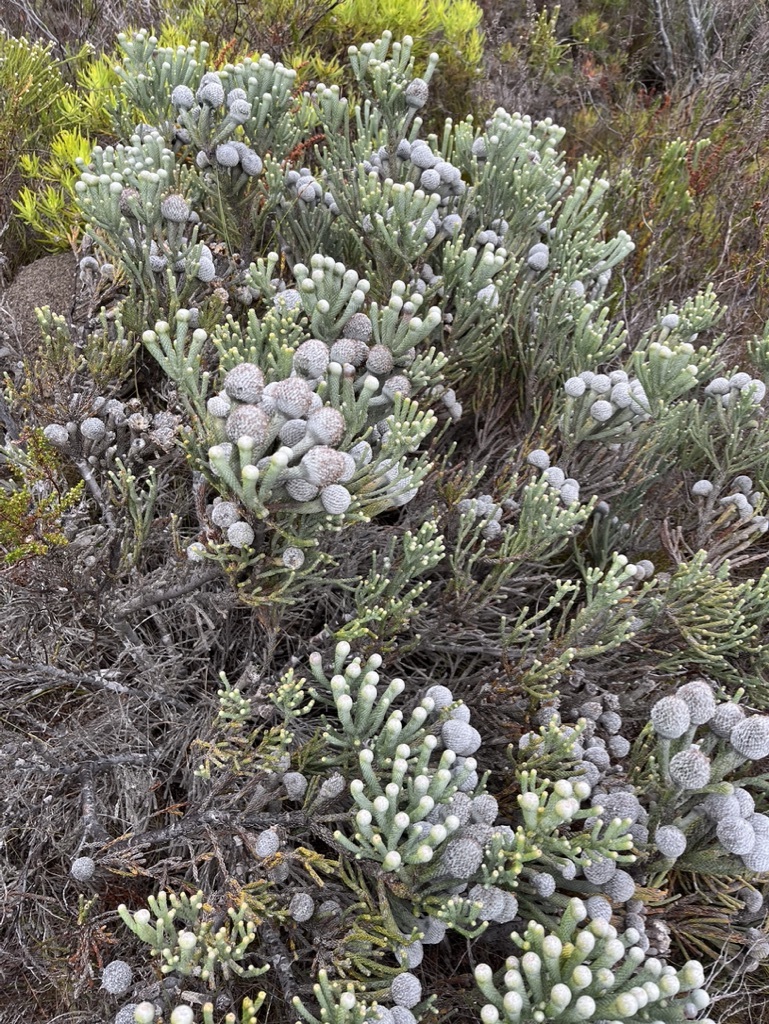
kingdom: Plantae
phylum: Tracheophyta
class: Magnoliopsida
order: Bruniales
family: Bruniaceae
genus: Brunia
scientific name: Brunia laevis
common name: Silver brunia
